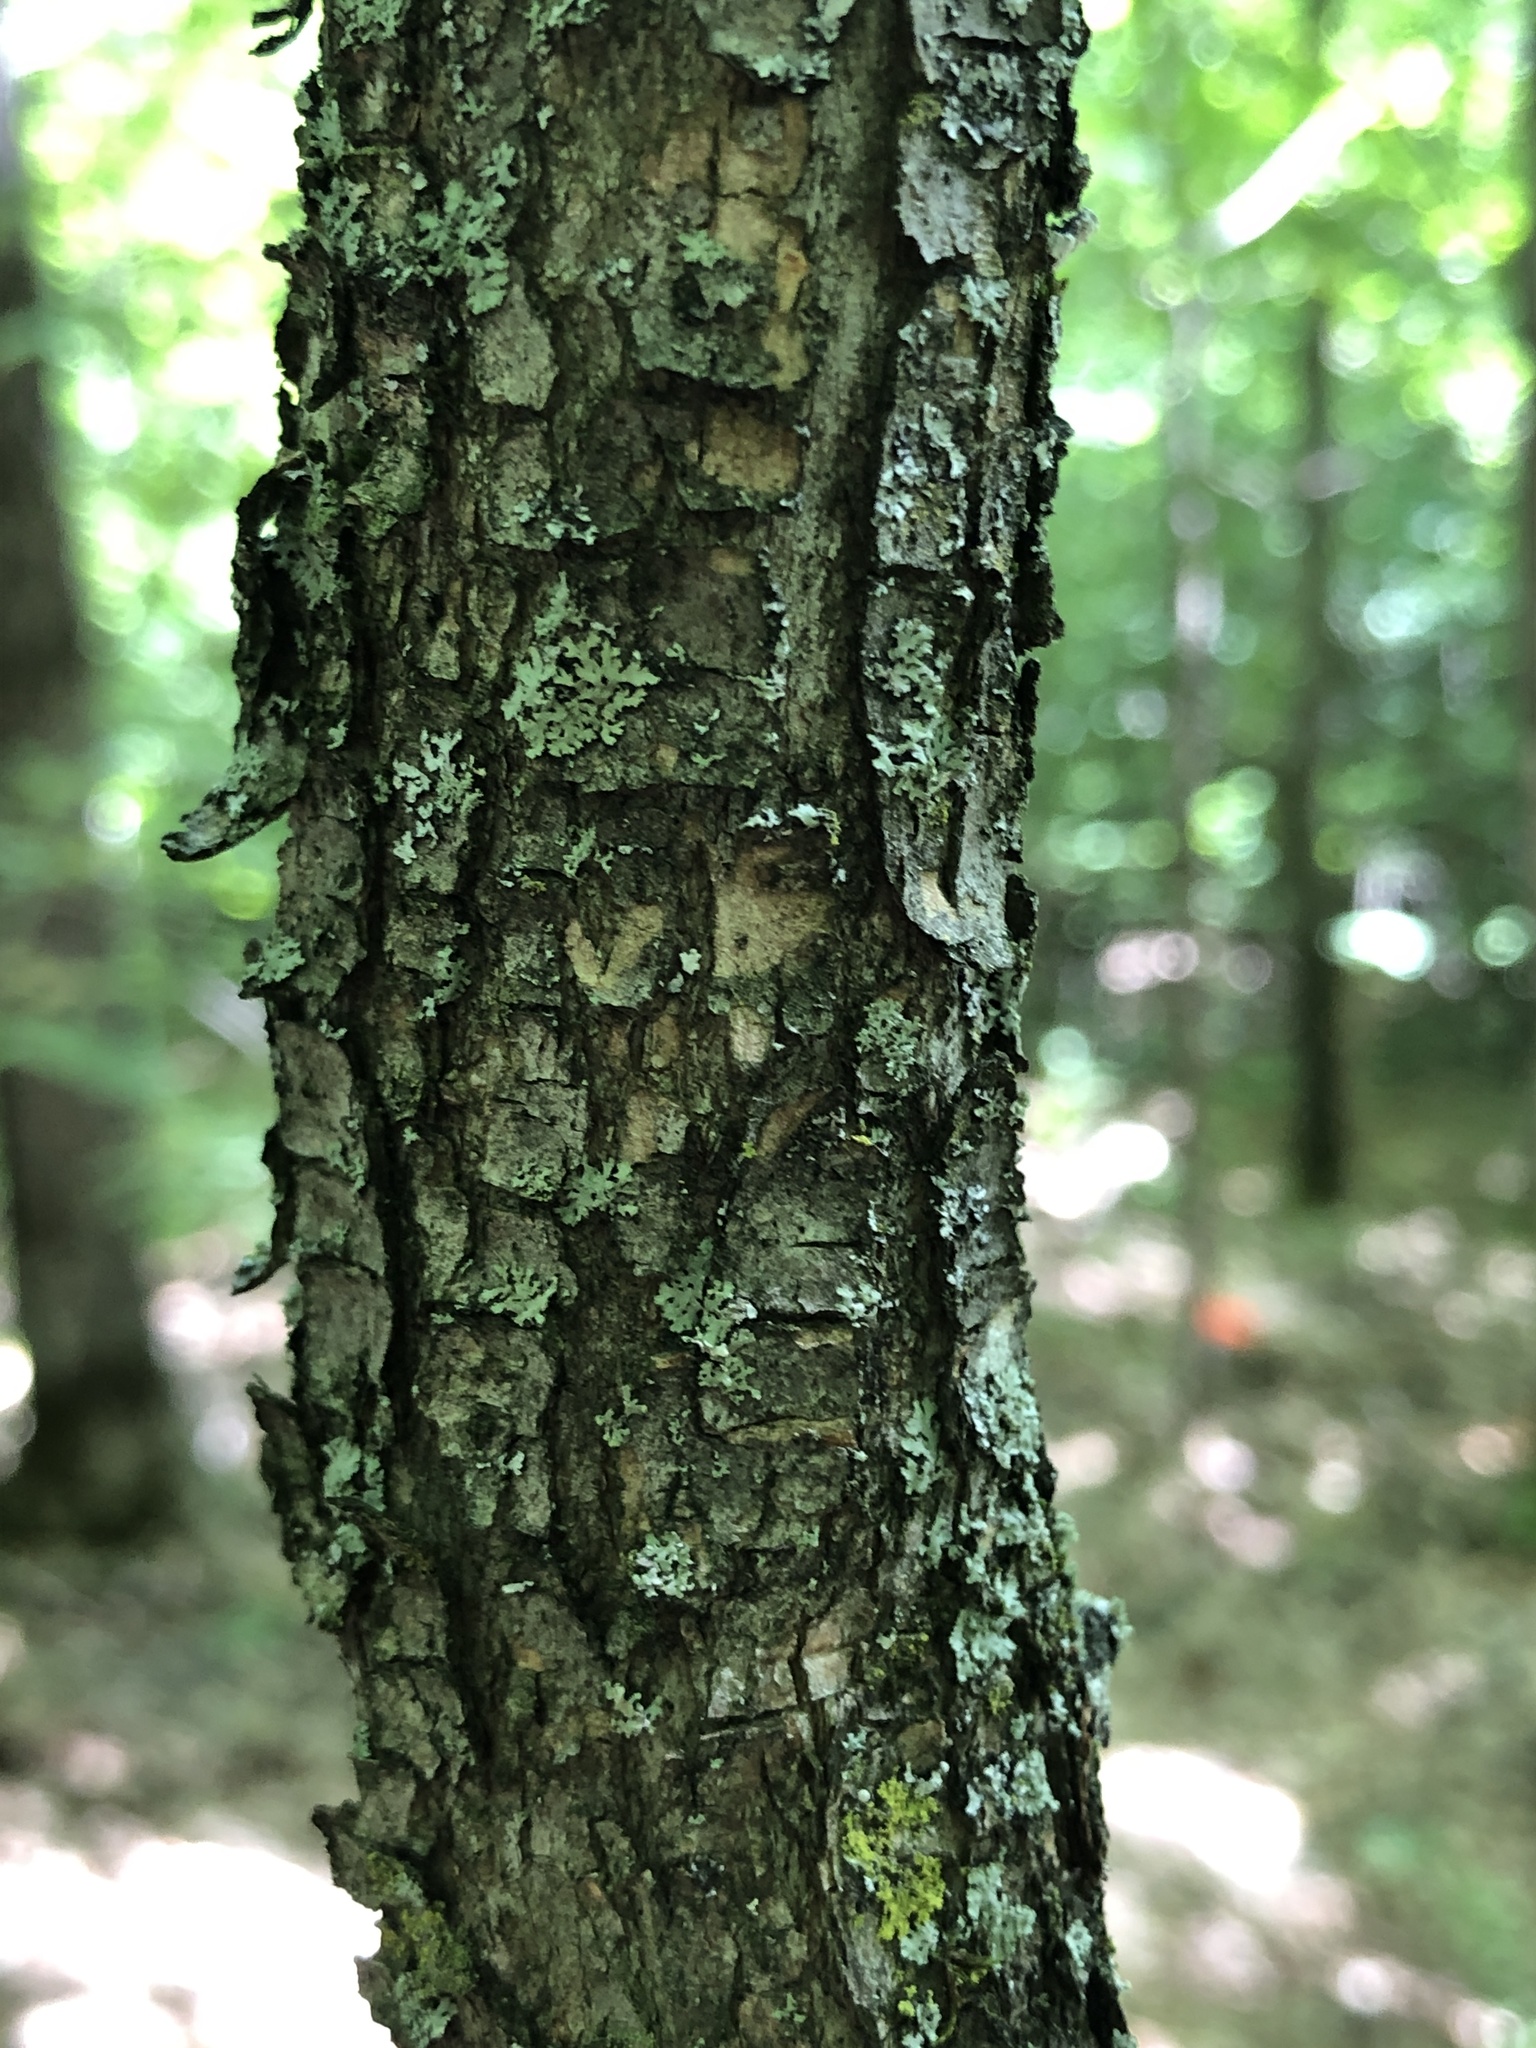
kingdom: Plantae
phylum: Tracheophyta
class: Magnoliopsida
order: Fagales
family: Betulaceae
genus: Ostrya
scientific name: Ostrya virginiana
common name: Ironwood
